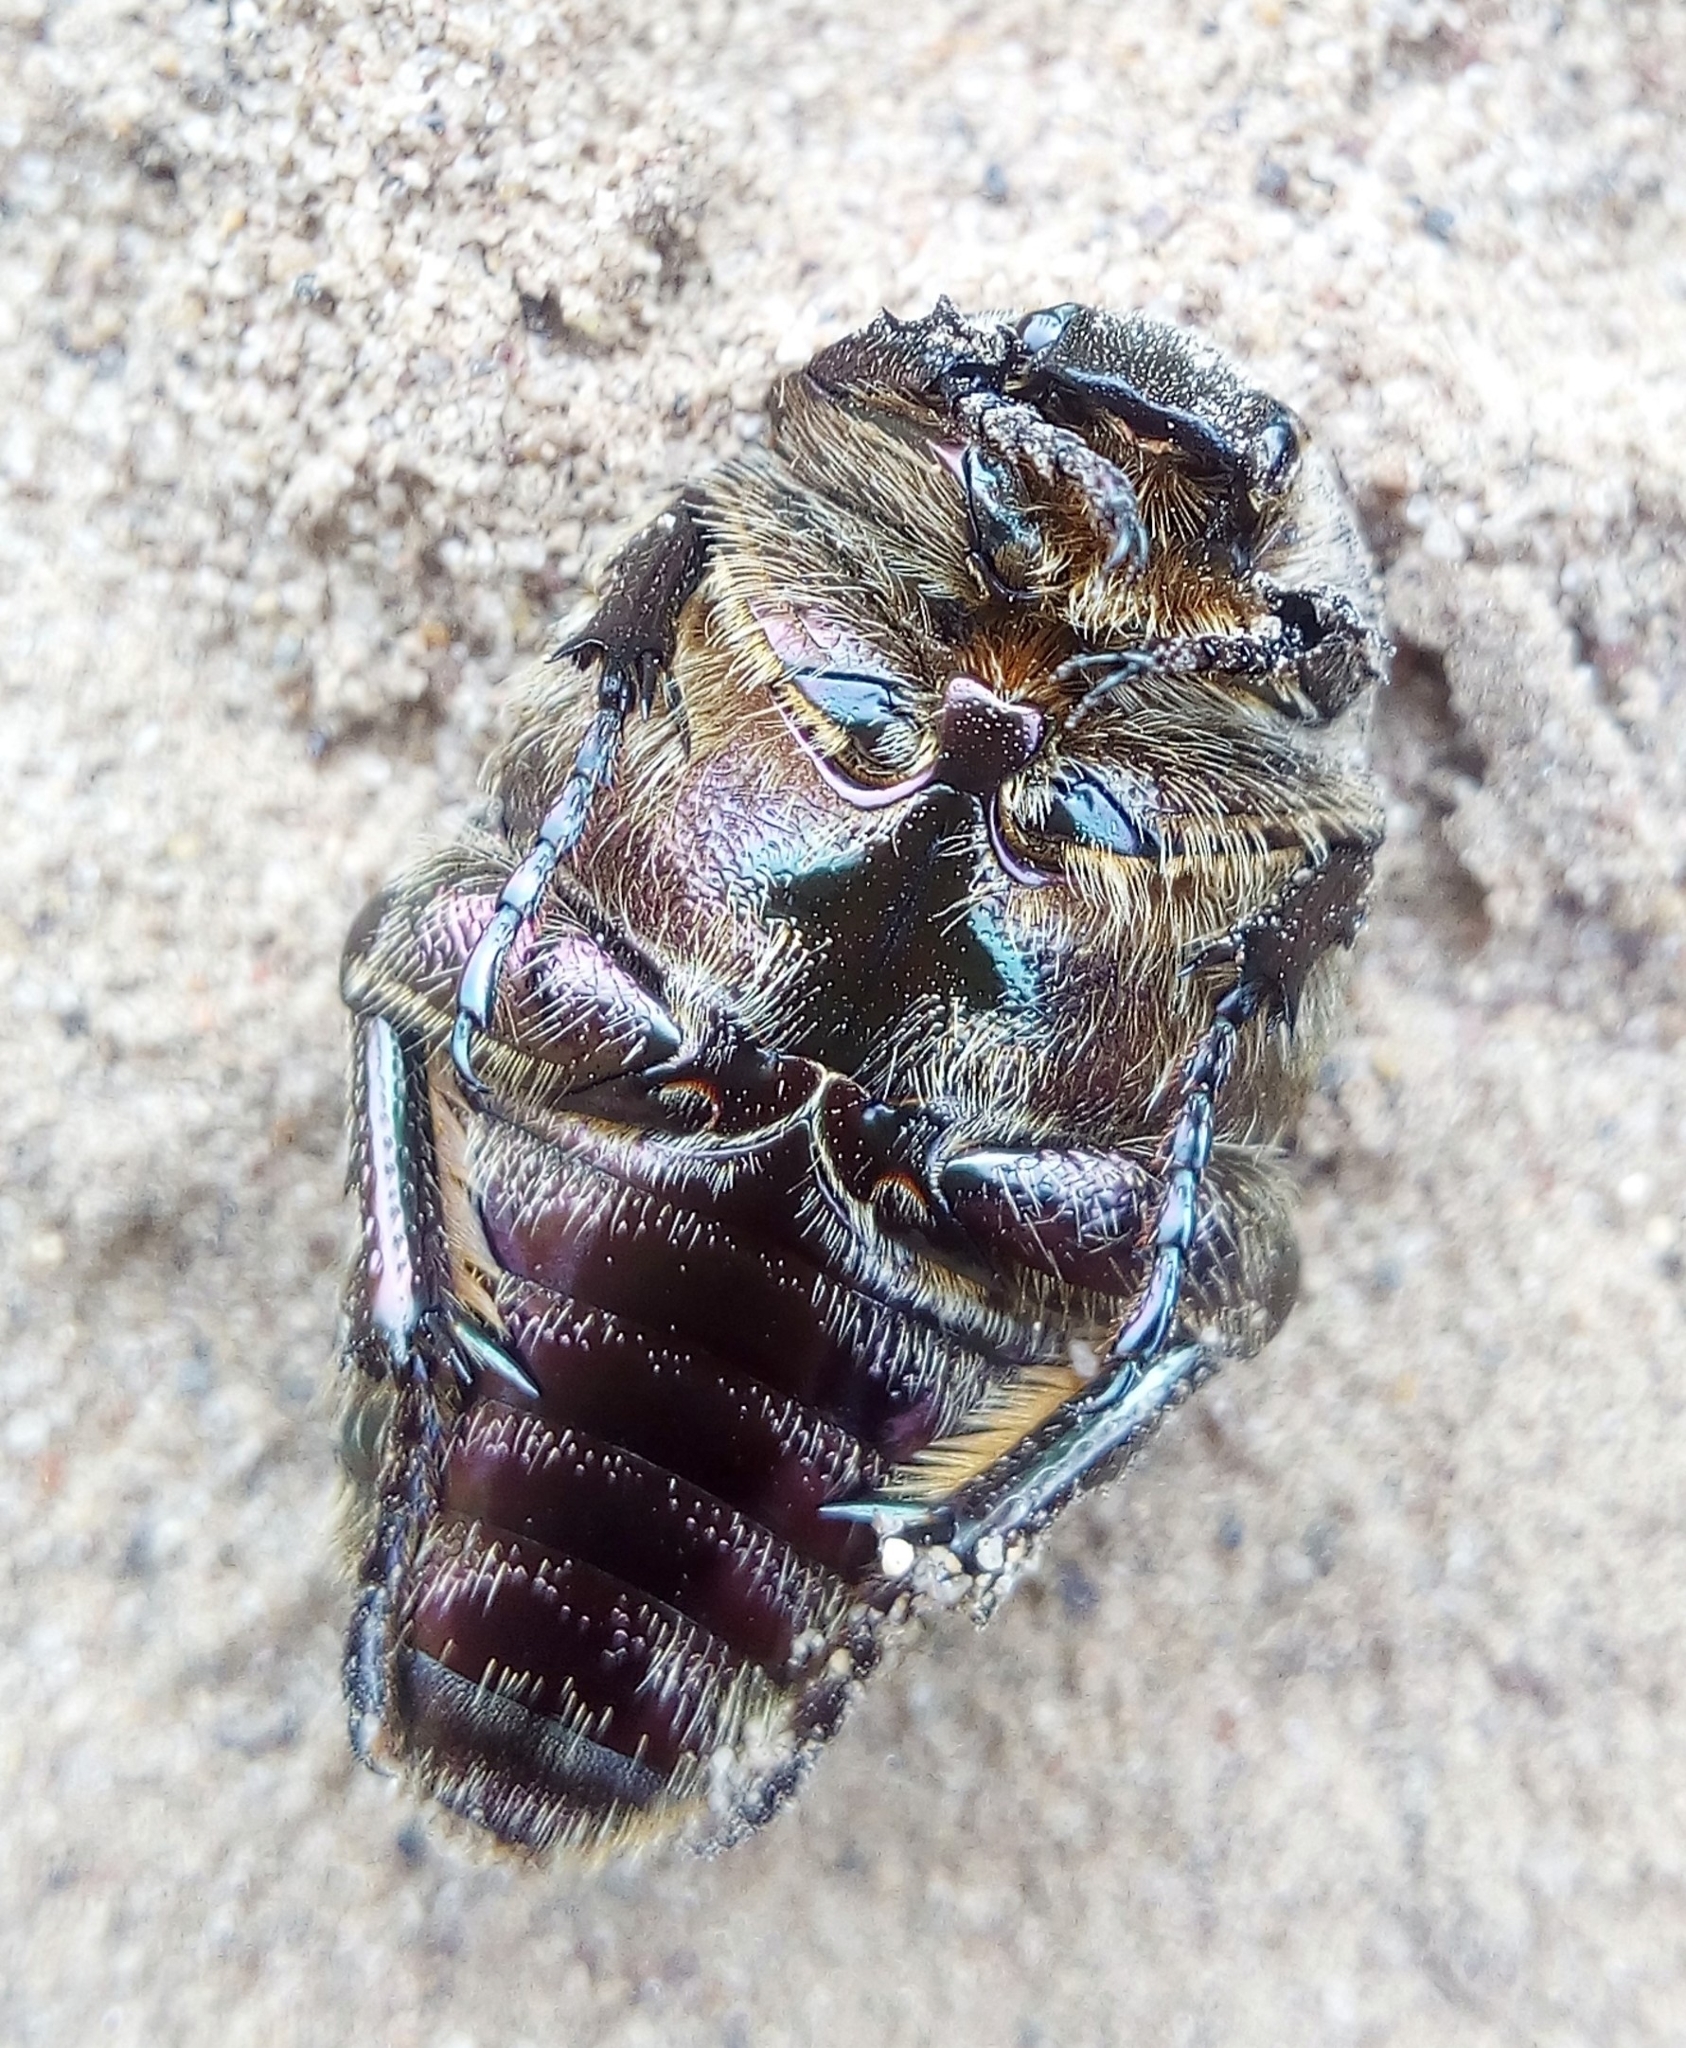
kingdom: Animalia
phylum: Arthropoda
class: Insecta
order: Coleoptera
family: Scarabaeidae
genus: Protaetia
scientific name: Protaetia cuprea
